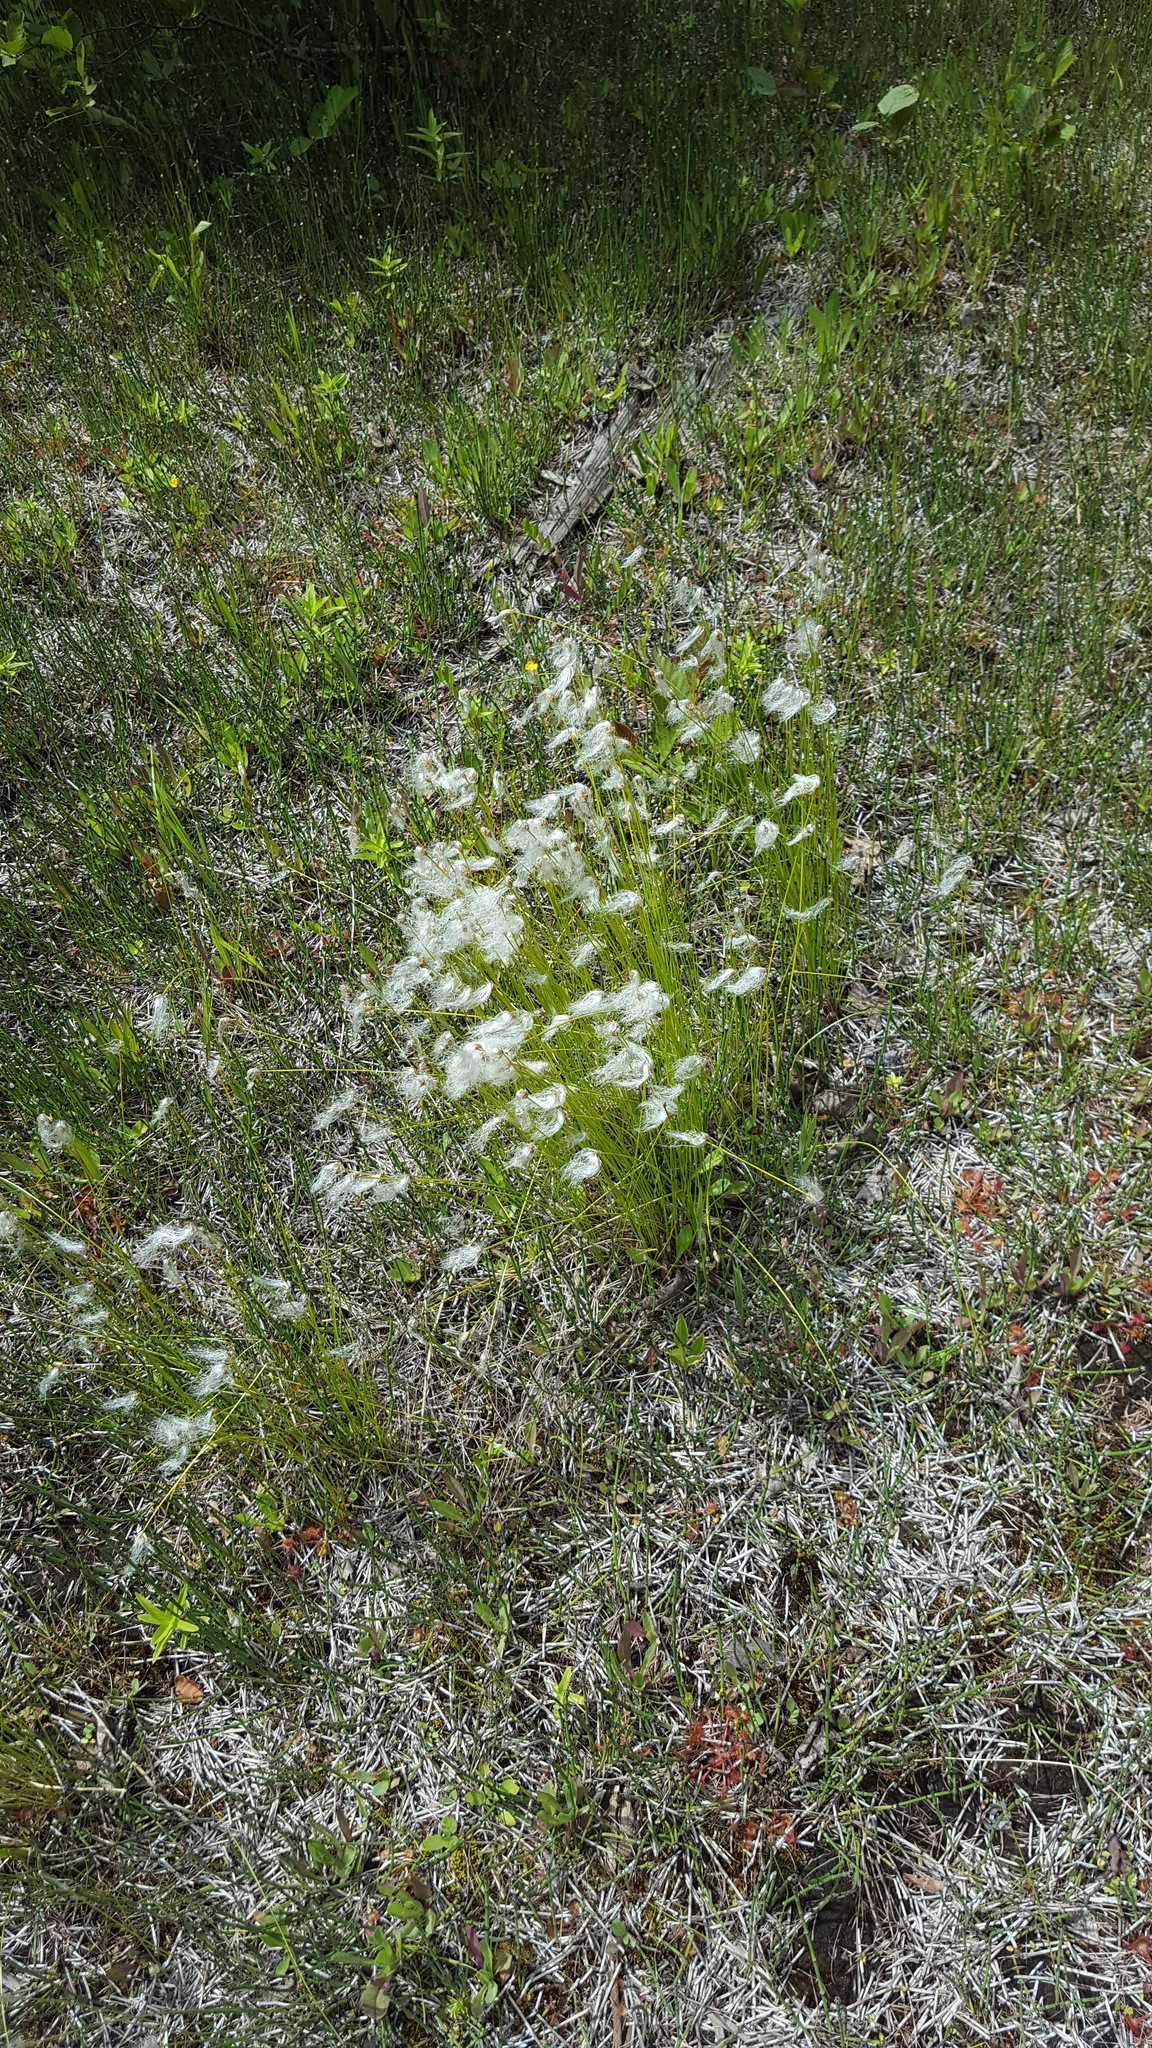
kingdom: Plantae
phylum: Tracheophyta
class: Liliopsida
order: Poales
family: Cyperaceae
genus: Trichophorum
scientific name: Trichophorum alpinum
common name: Alpine bulrush
